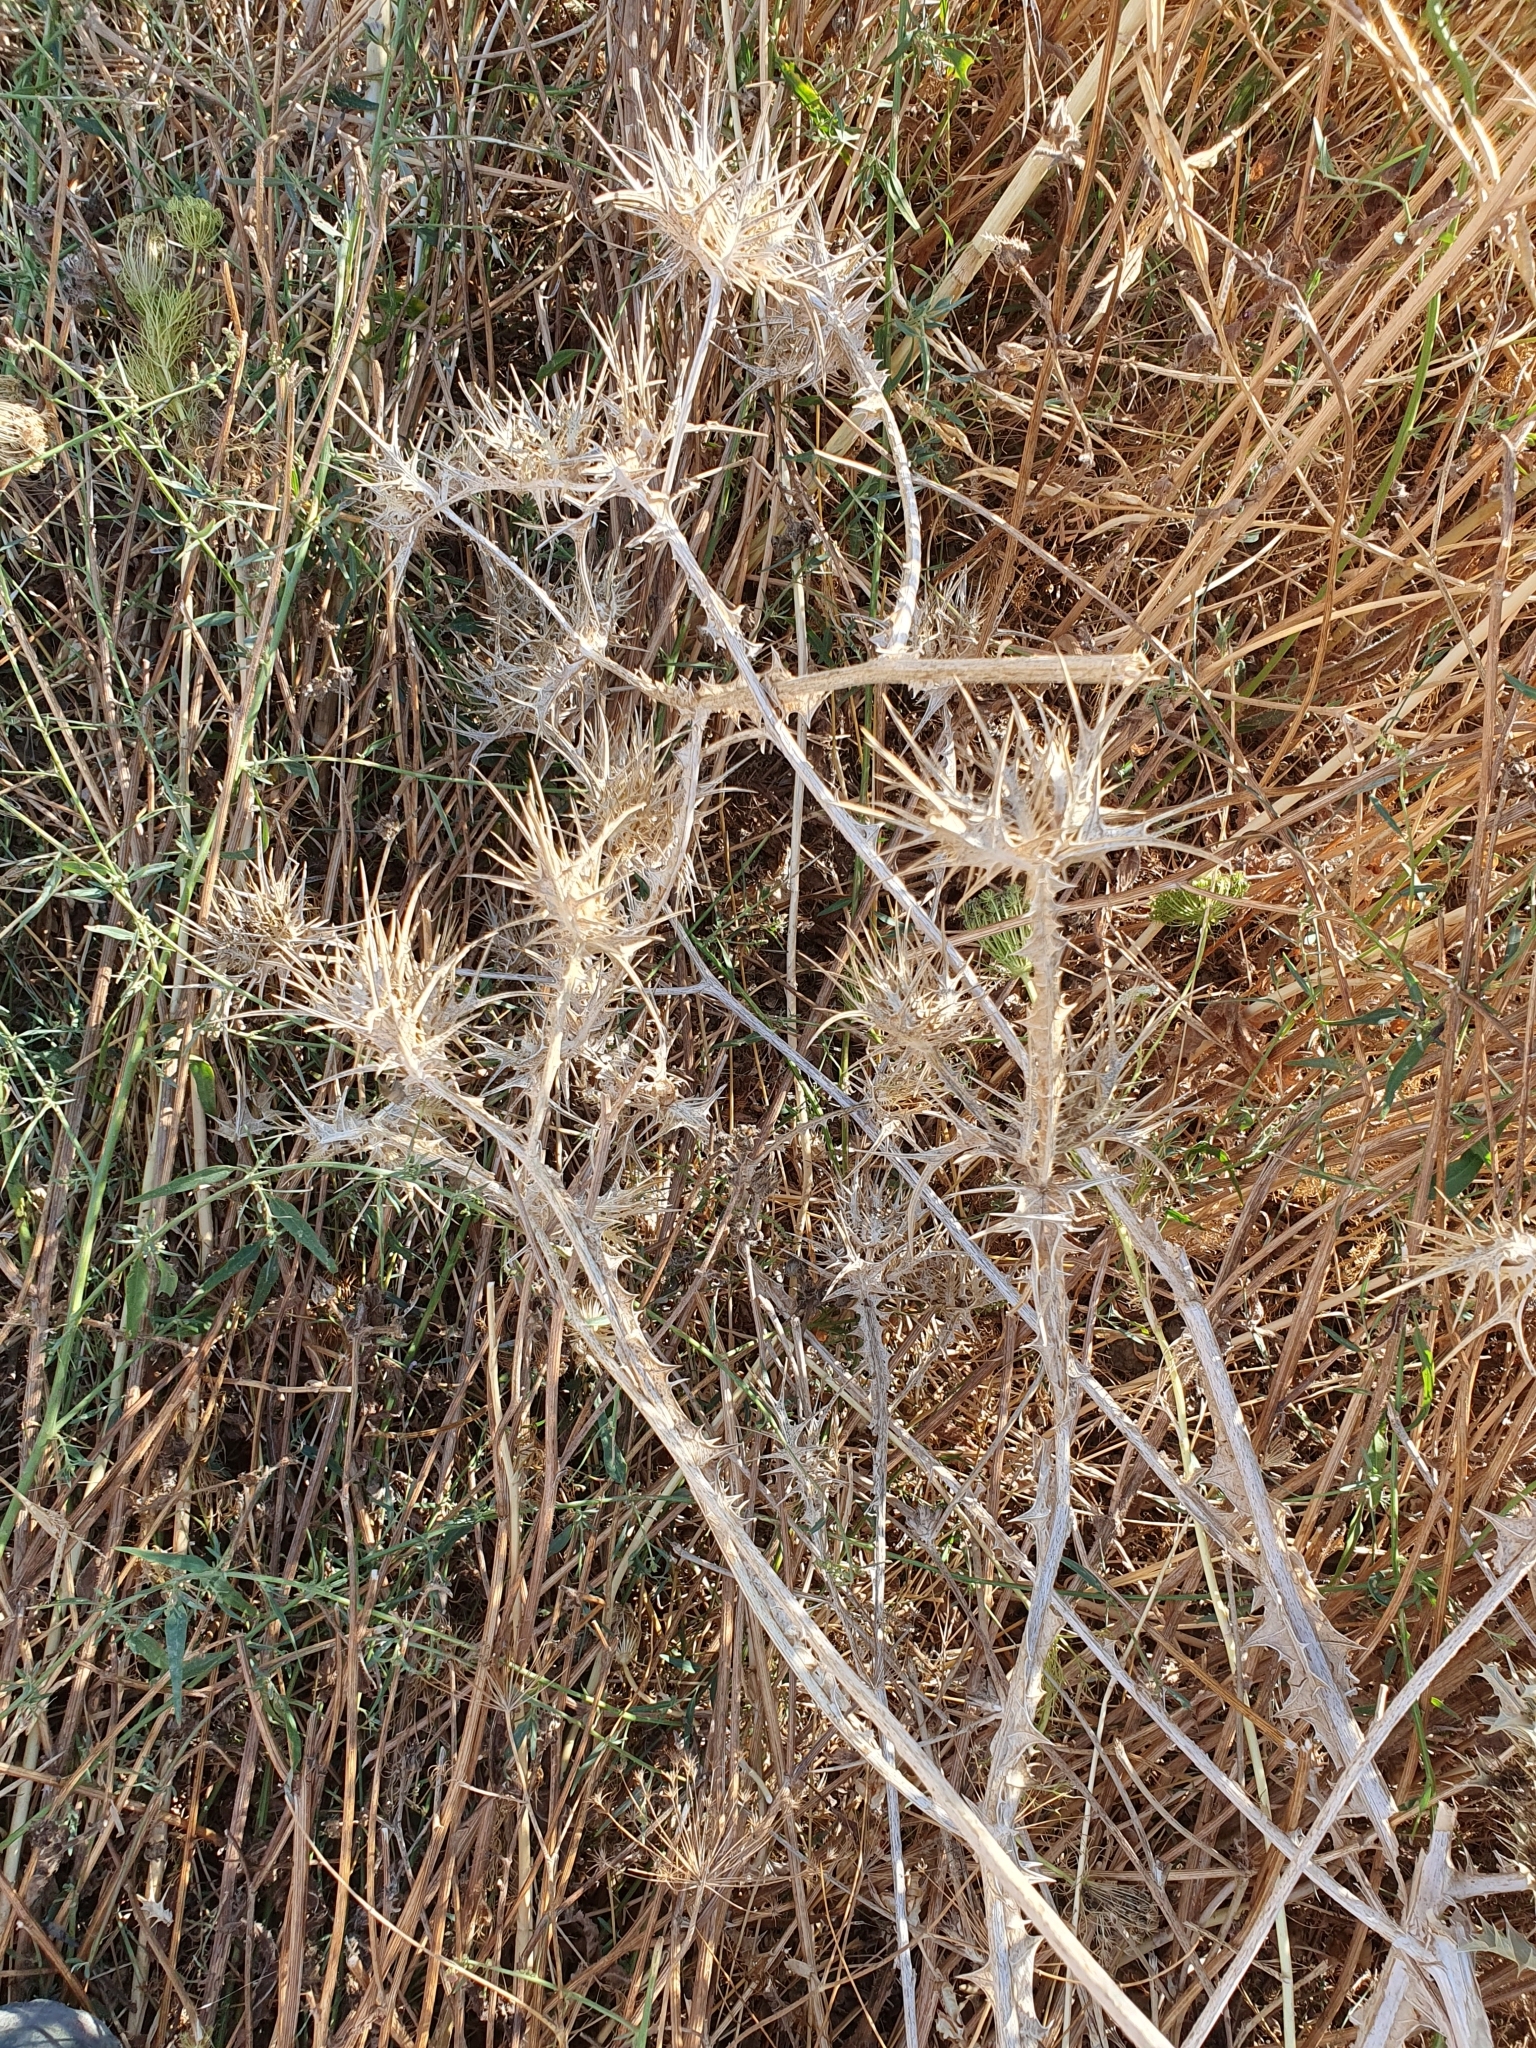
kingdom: Plantae
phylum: Tracheophyta
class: Magnoliopsida
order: Asterales
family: Asteraceae
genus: Scolymus
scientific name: Scolymus maculatus
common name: Spotted thistle
